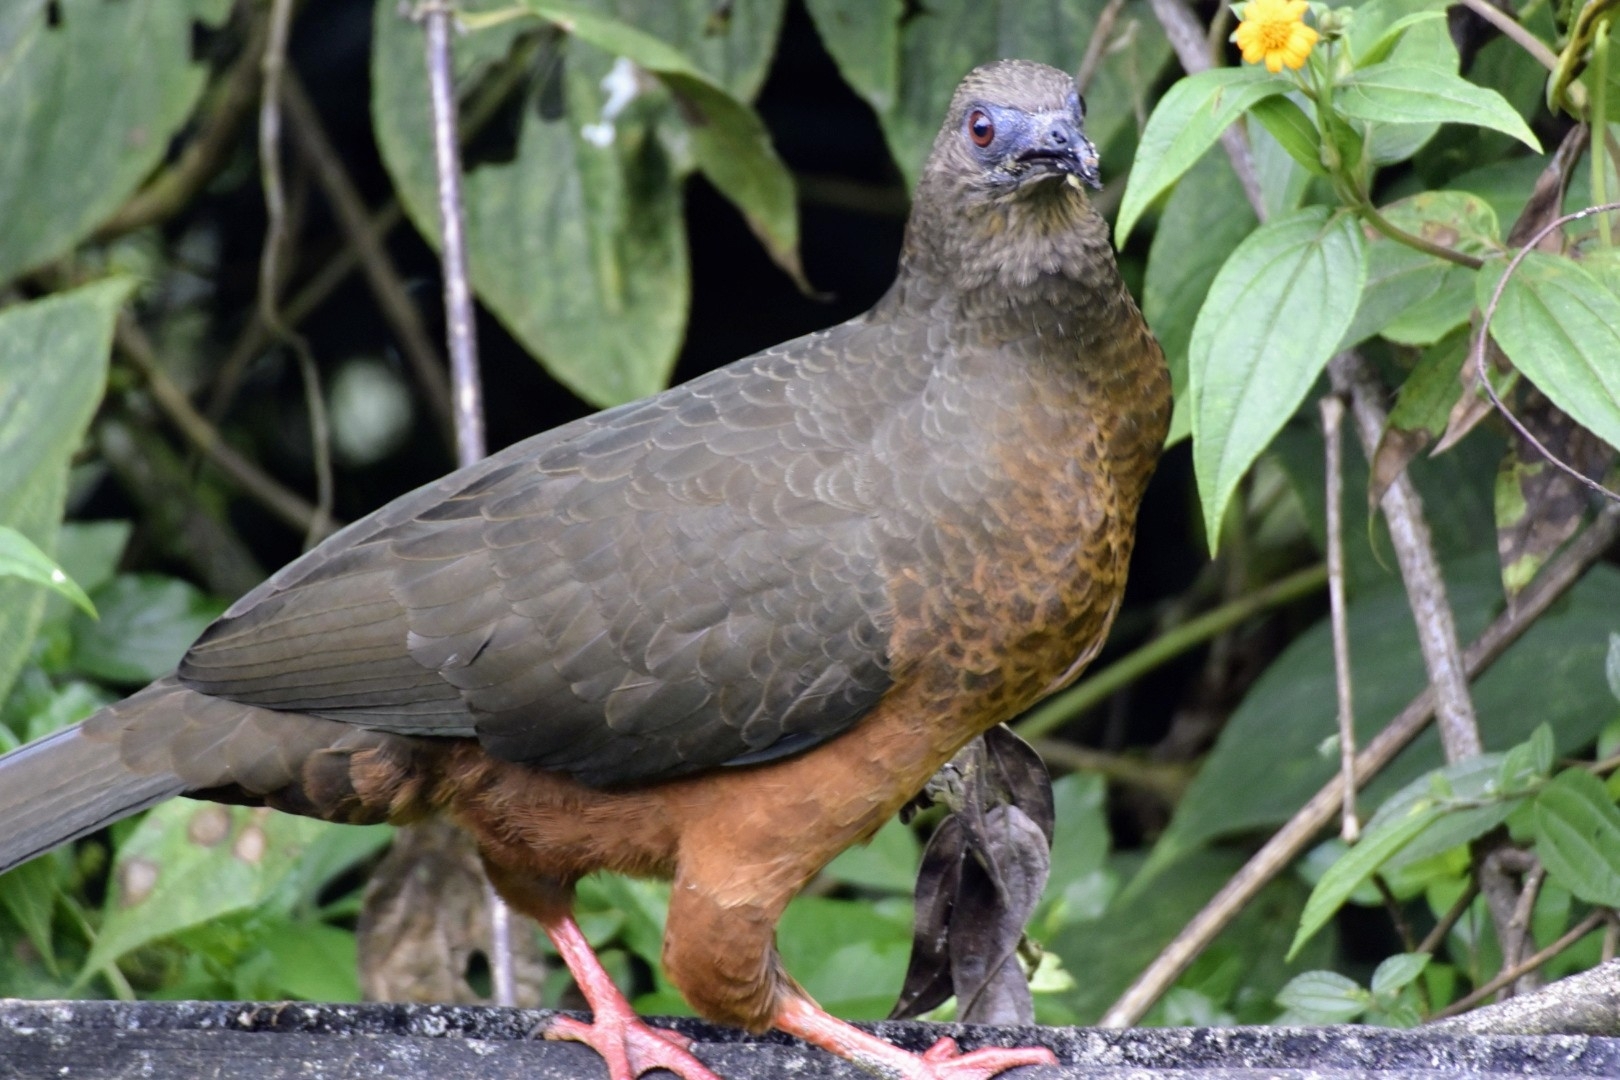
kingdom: Animalia
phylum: Chordata
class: Aves
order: Galliformes
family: Cracidae
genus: Chamaepetes
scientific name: Chamaepetes goudotii
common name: Sickle-winged guan
